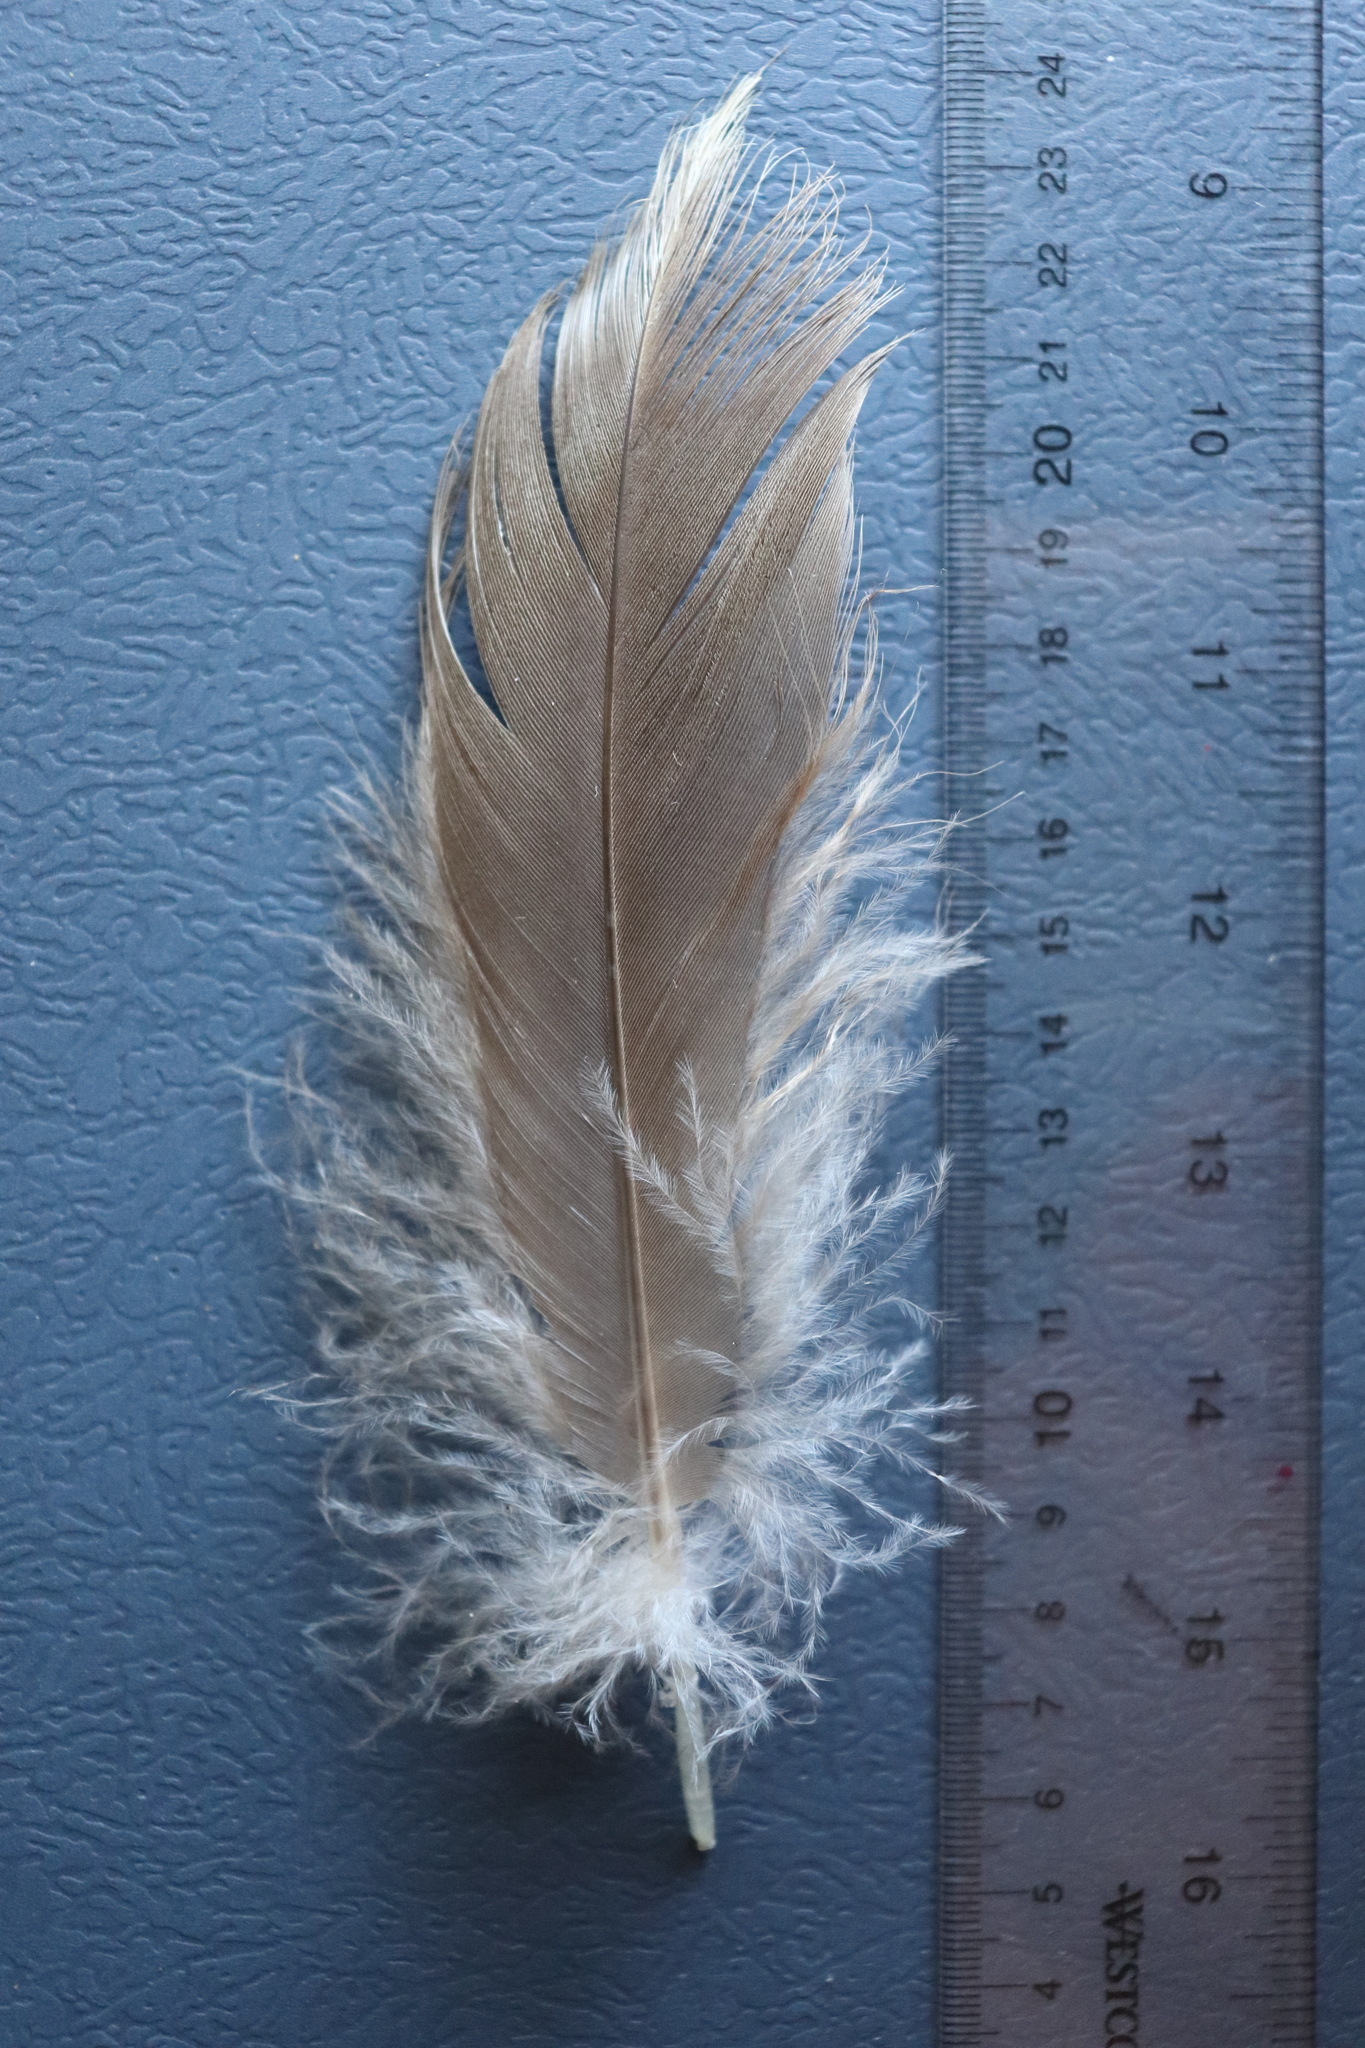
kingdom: Animalia
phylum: Chordata
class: Aves
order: Anseriformes
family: Anatidae
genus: Branta
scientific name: Branta canadensis
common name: Canada goose
